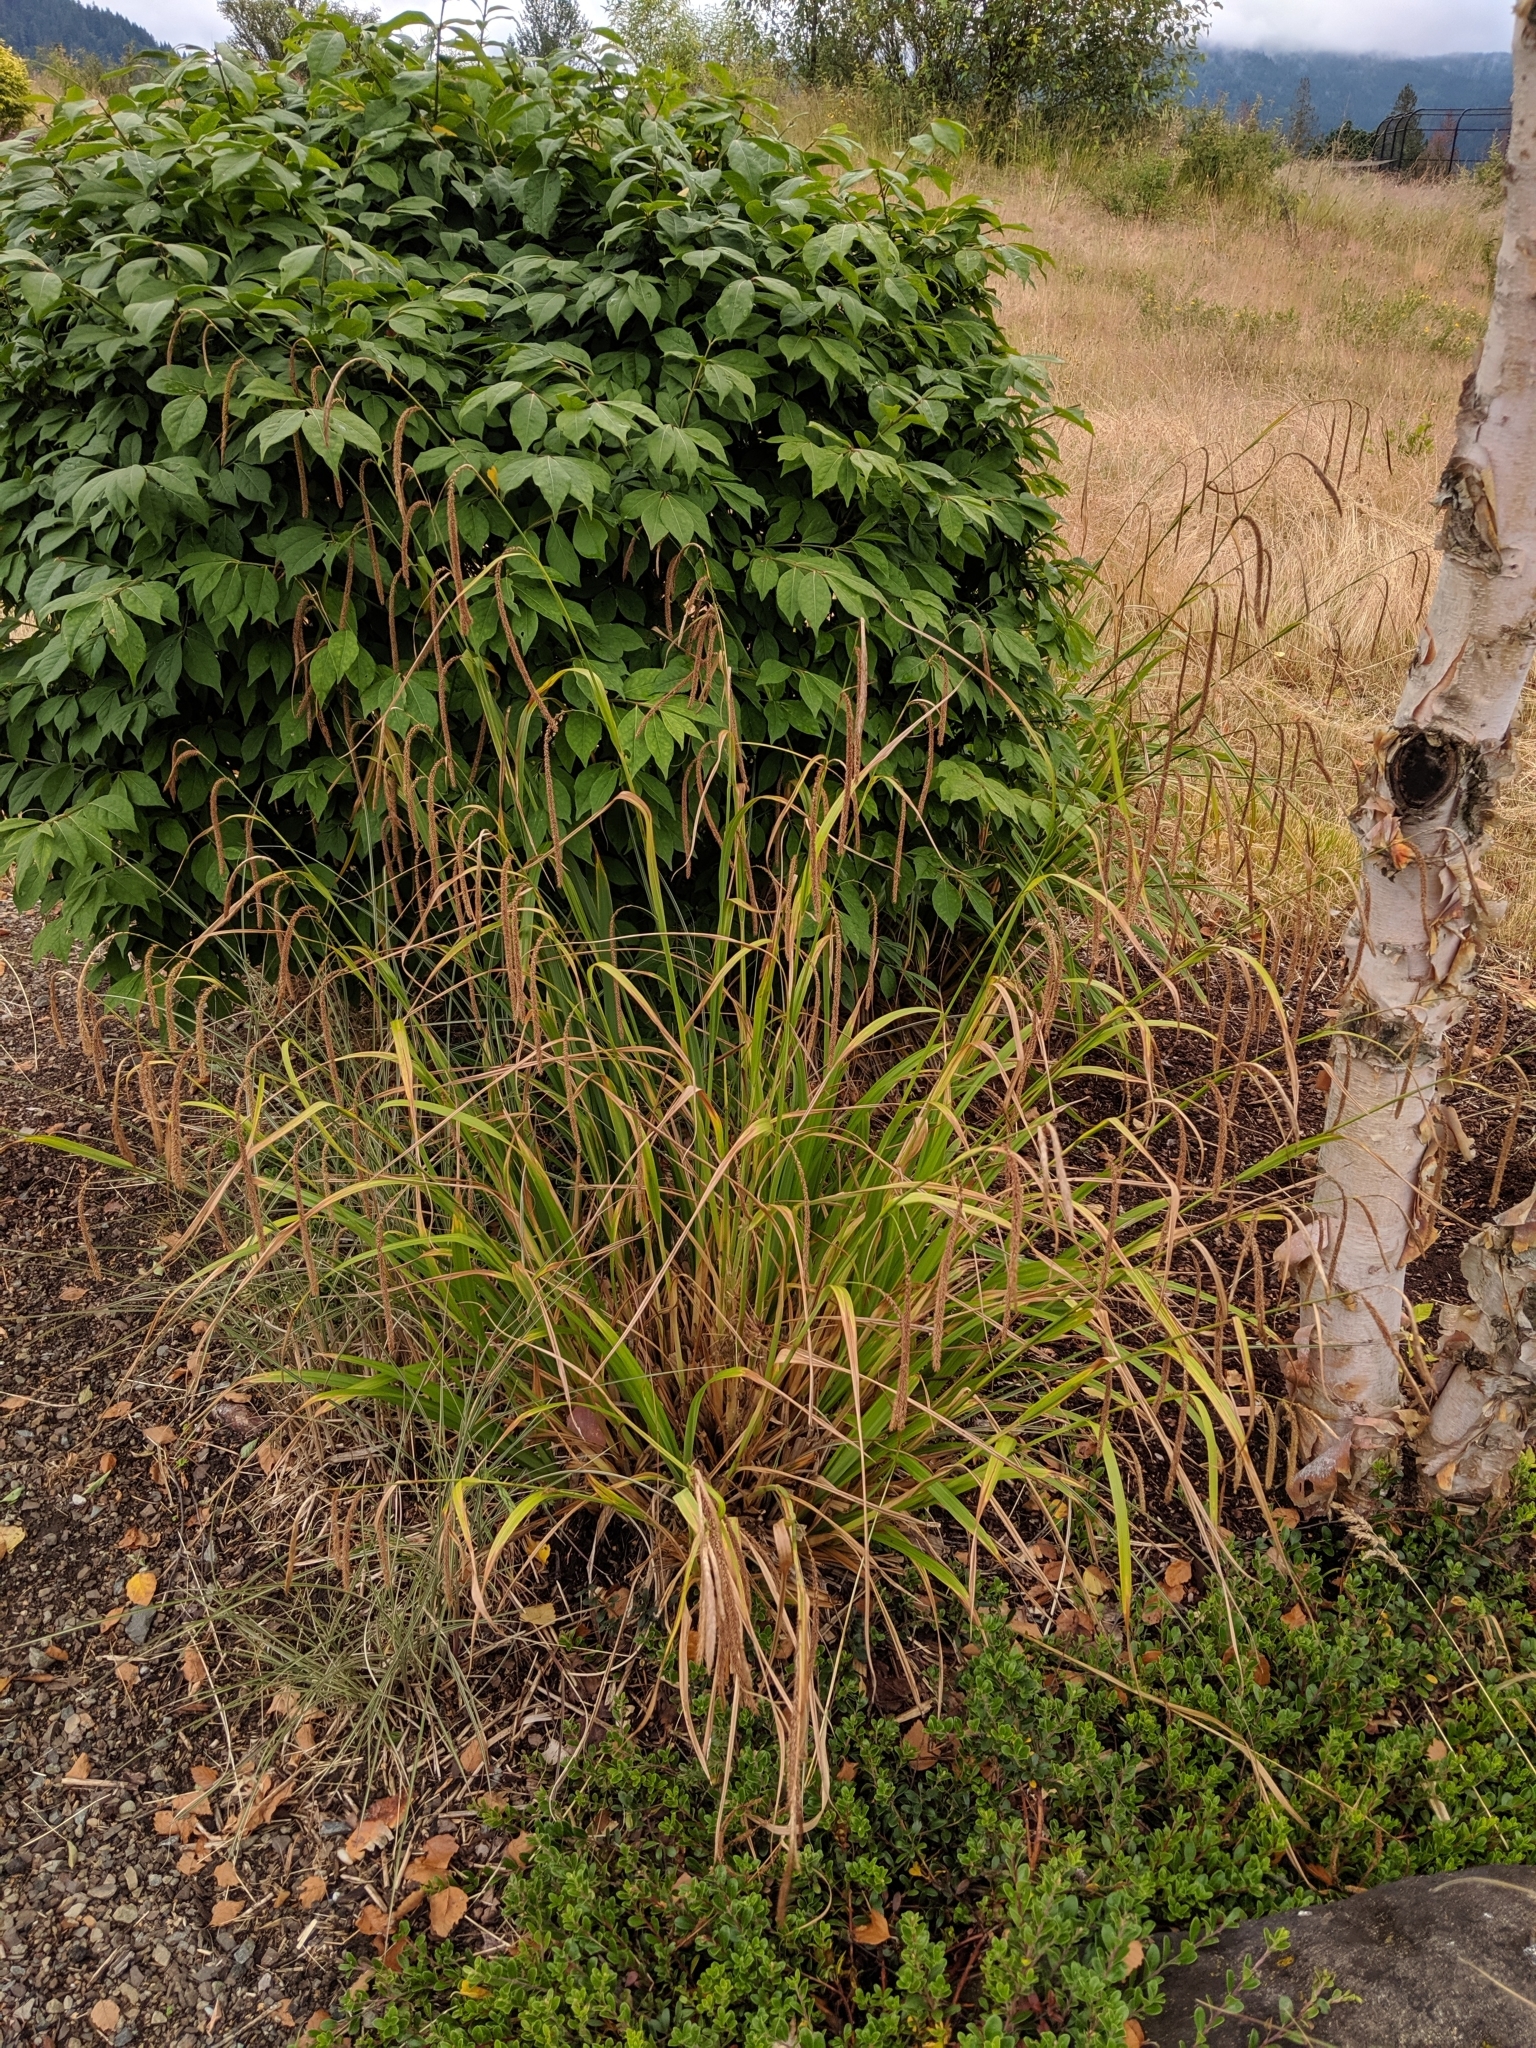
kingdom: Plantae
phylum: Tracheophyta
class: Liliopsida
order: Poales
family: Cyperaceae
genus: Carex
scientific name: Carex pendula
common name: Pendulous sedge
